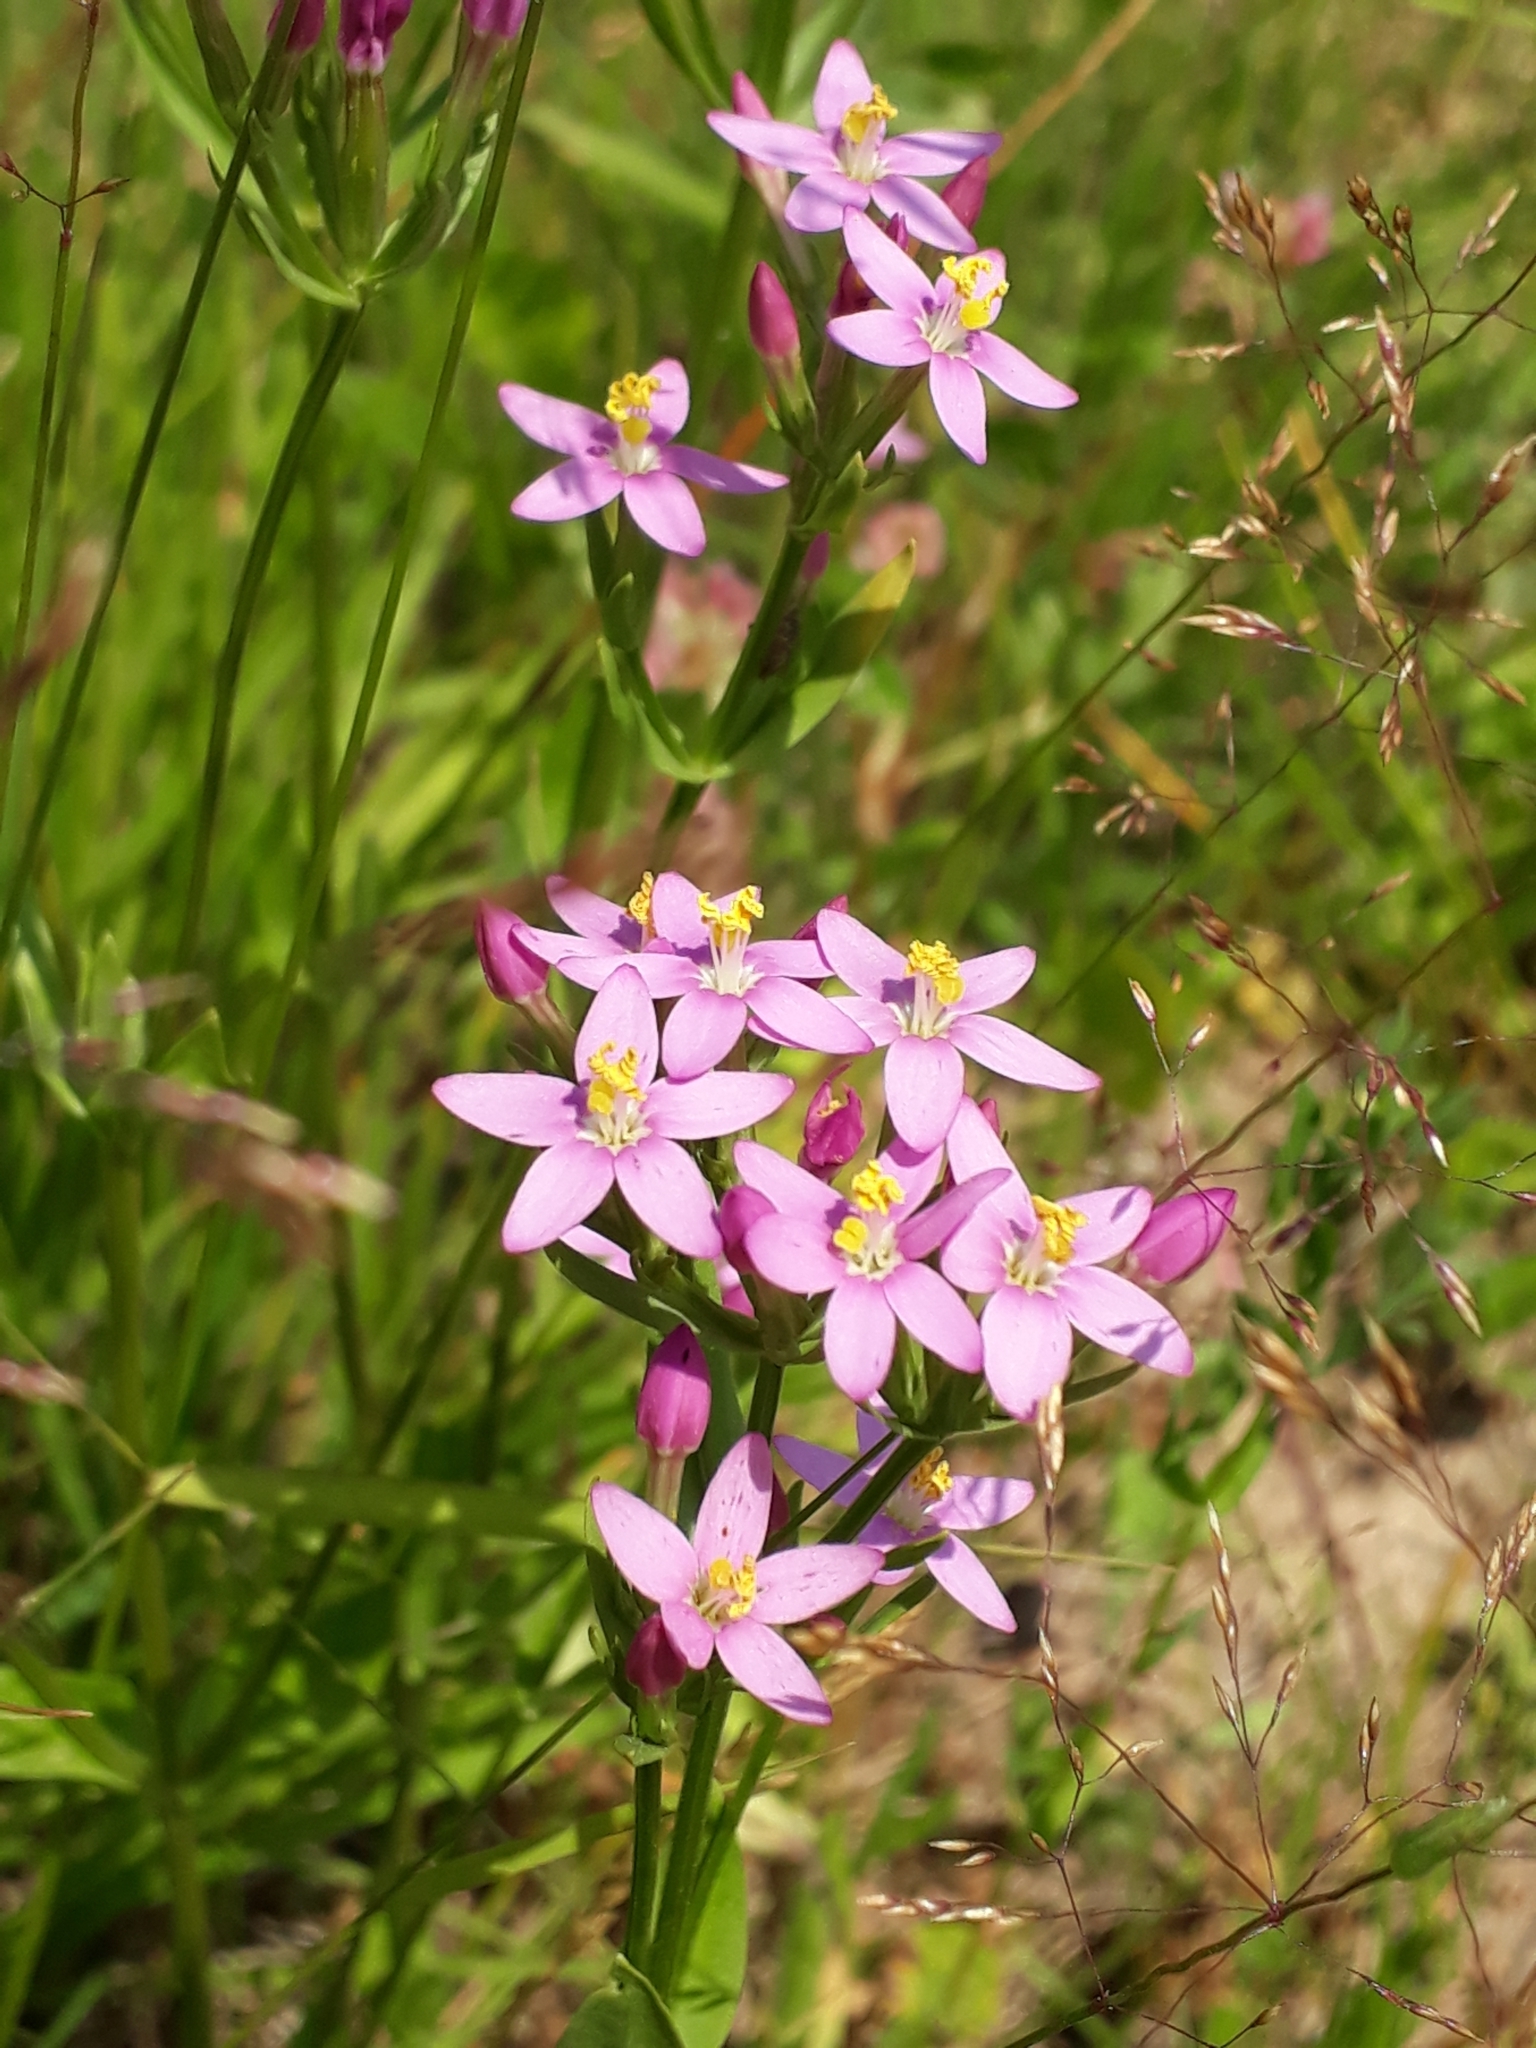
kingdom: Plantae
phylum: Tracheophyta
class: Magnoliopsida
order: Gentianales
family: Gentianaceae
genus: Centaurium
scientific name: Centaurium erythraea
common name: Common centaury
